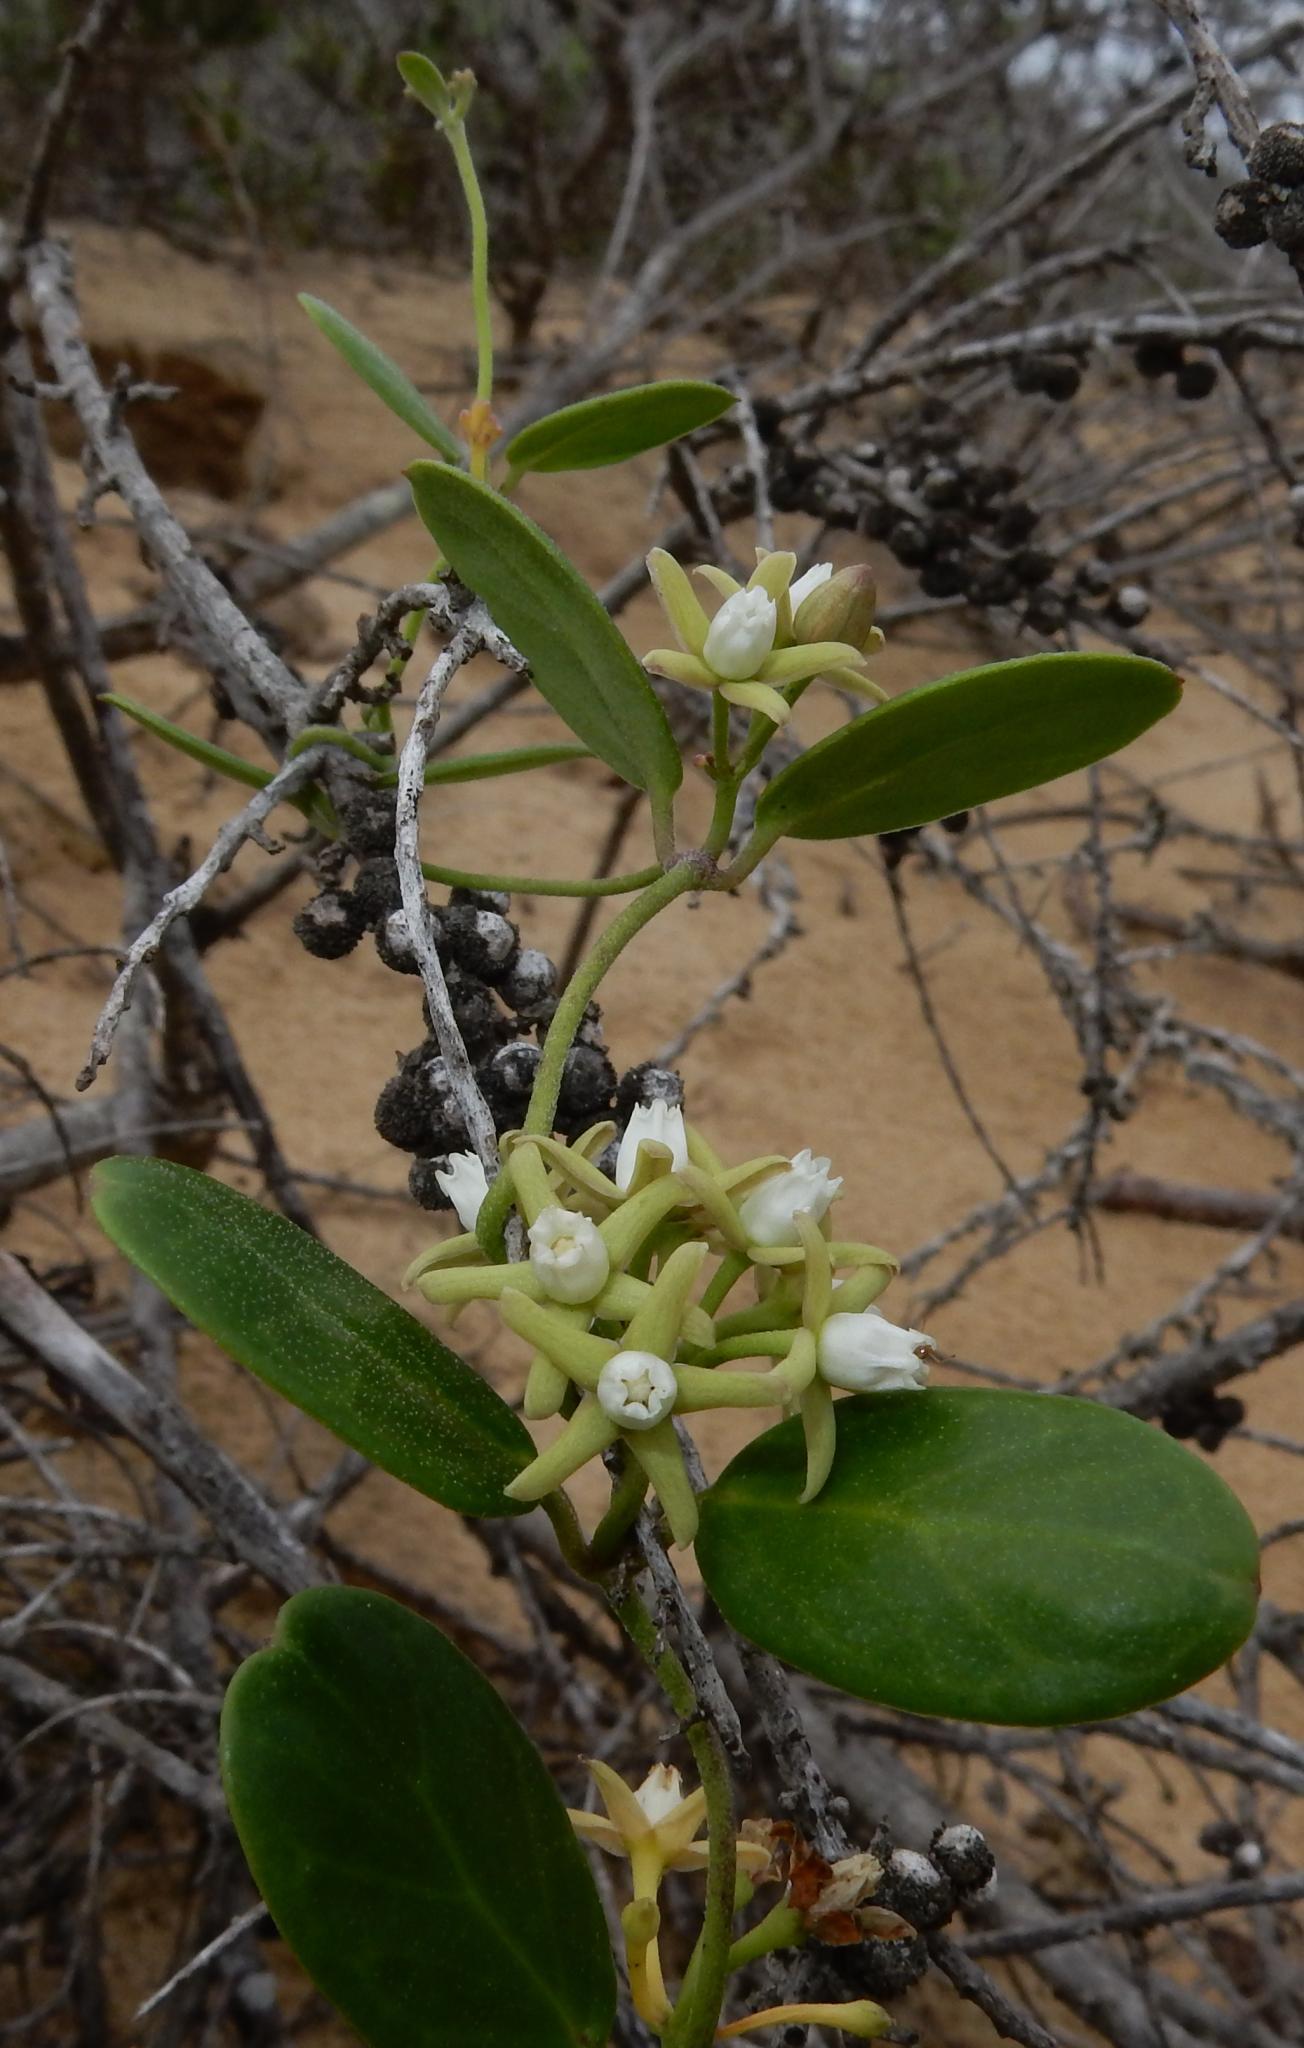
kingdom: Plantae
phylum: Tracheophyta
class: Magnoliopsida
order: Gentianales
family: Apocynaceae
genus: Cynanchum
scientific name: Cynanchum natalitium
